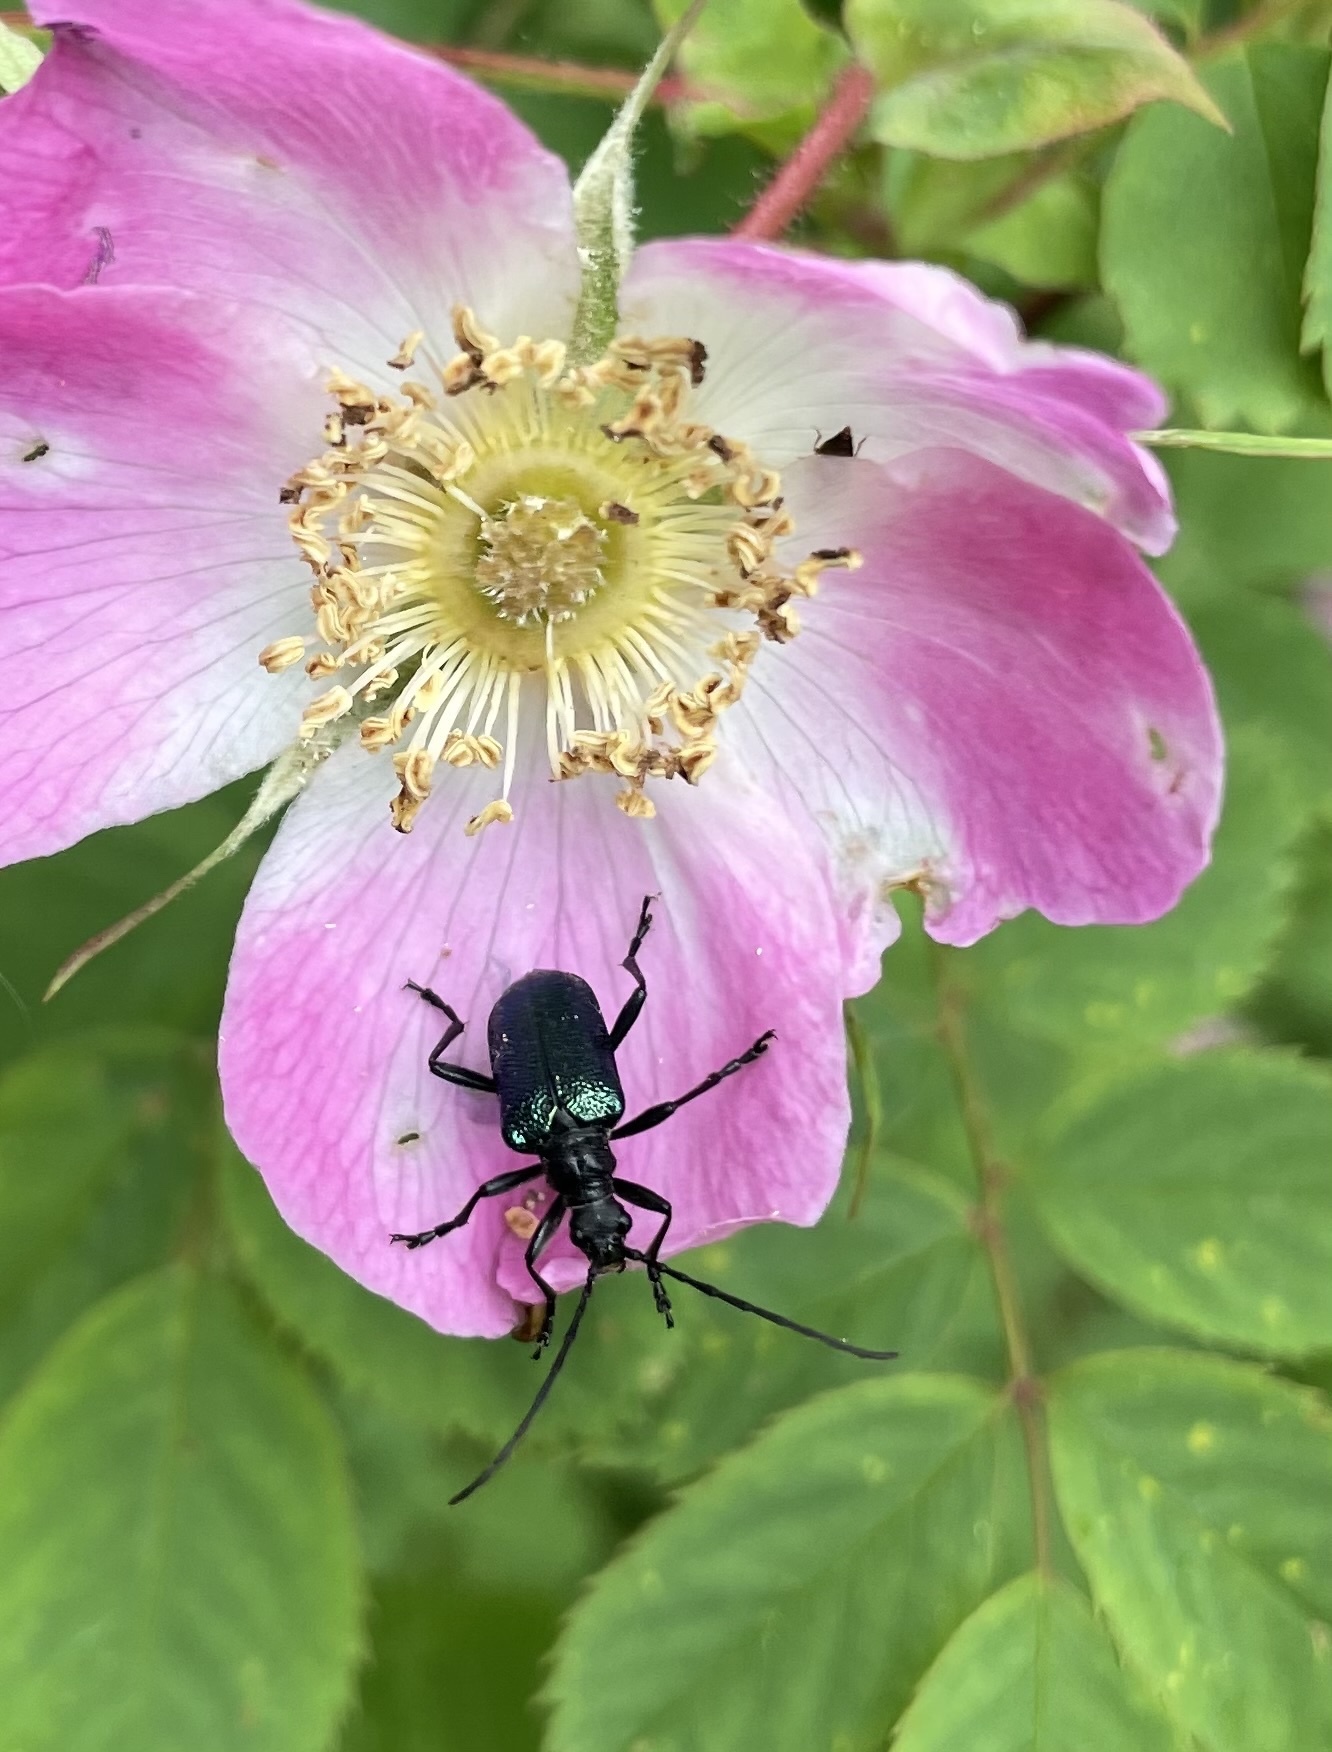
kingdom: Animalia
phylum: Arthropoda
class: Insecta
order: Coleoptera
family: Cerambycidae
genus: Gaurotes
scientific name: Gaurotes virginea
